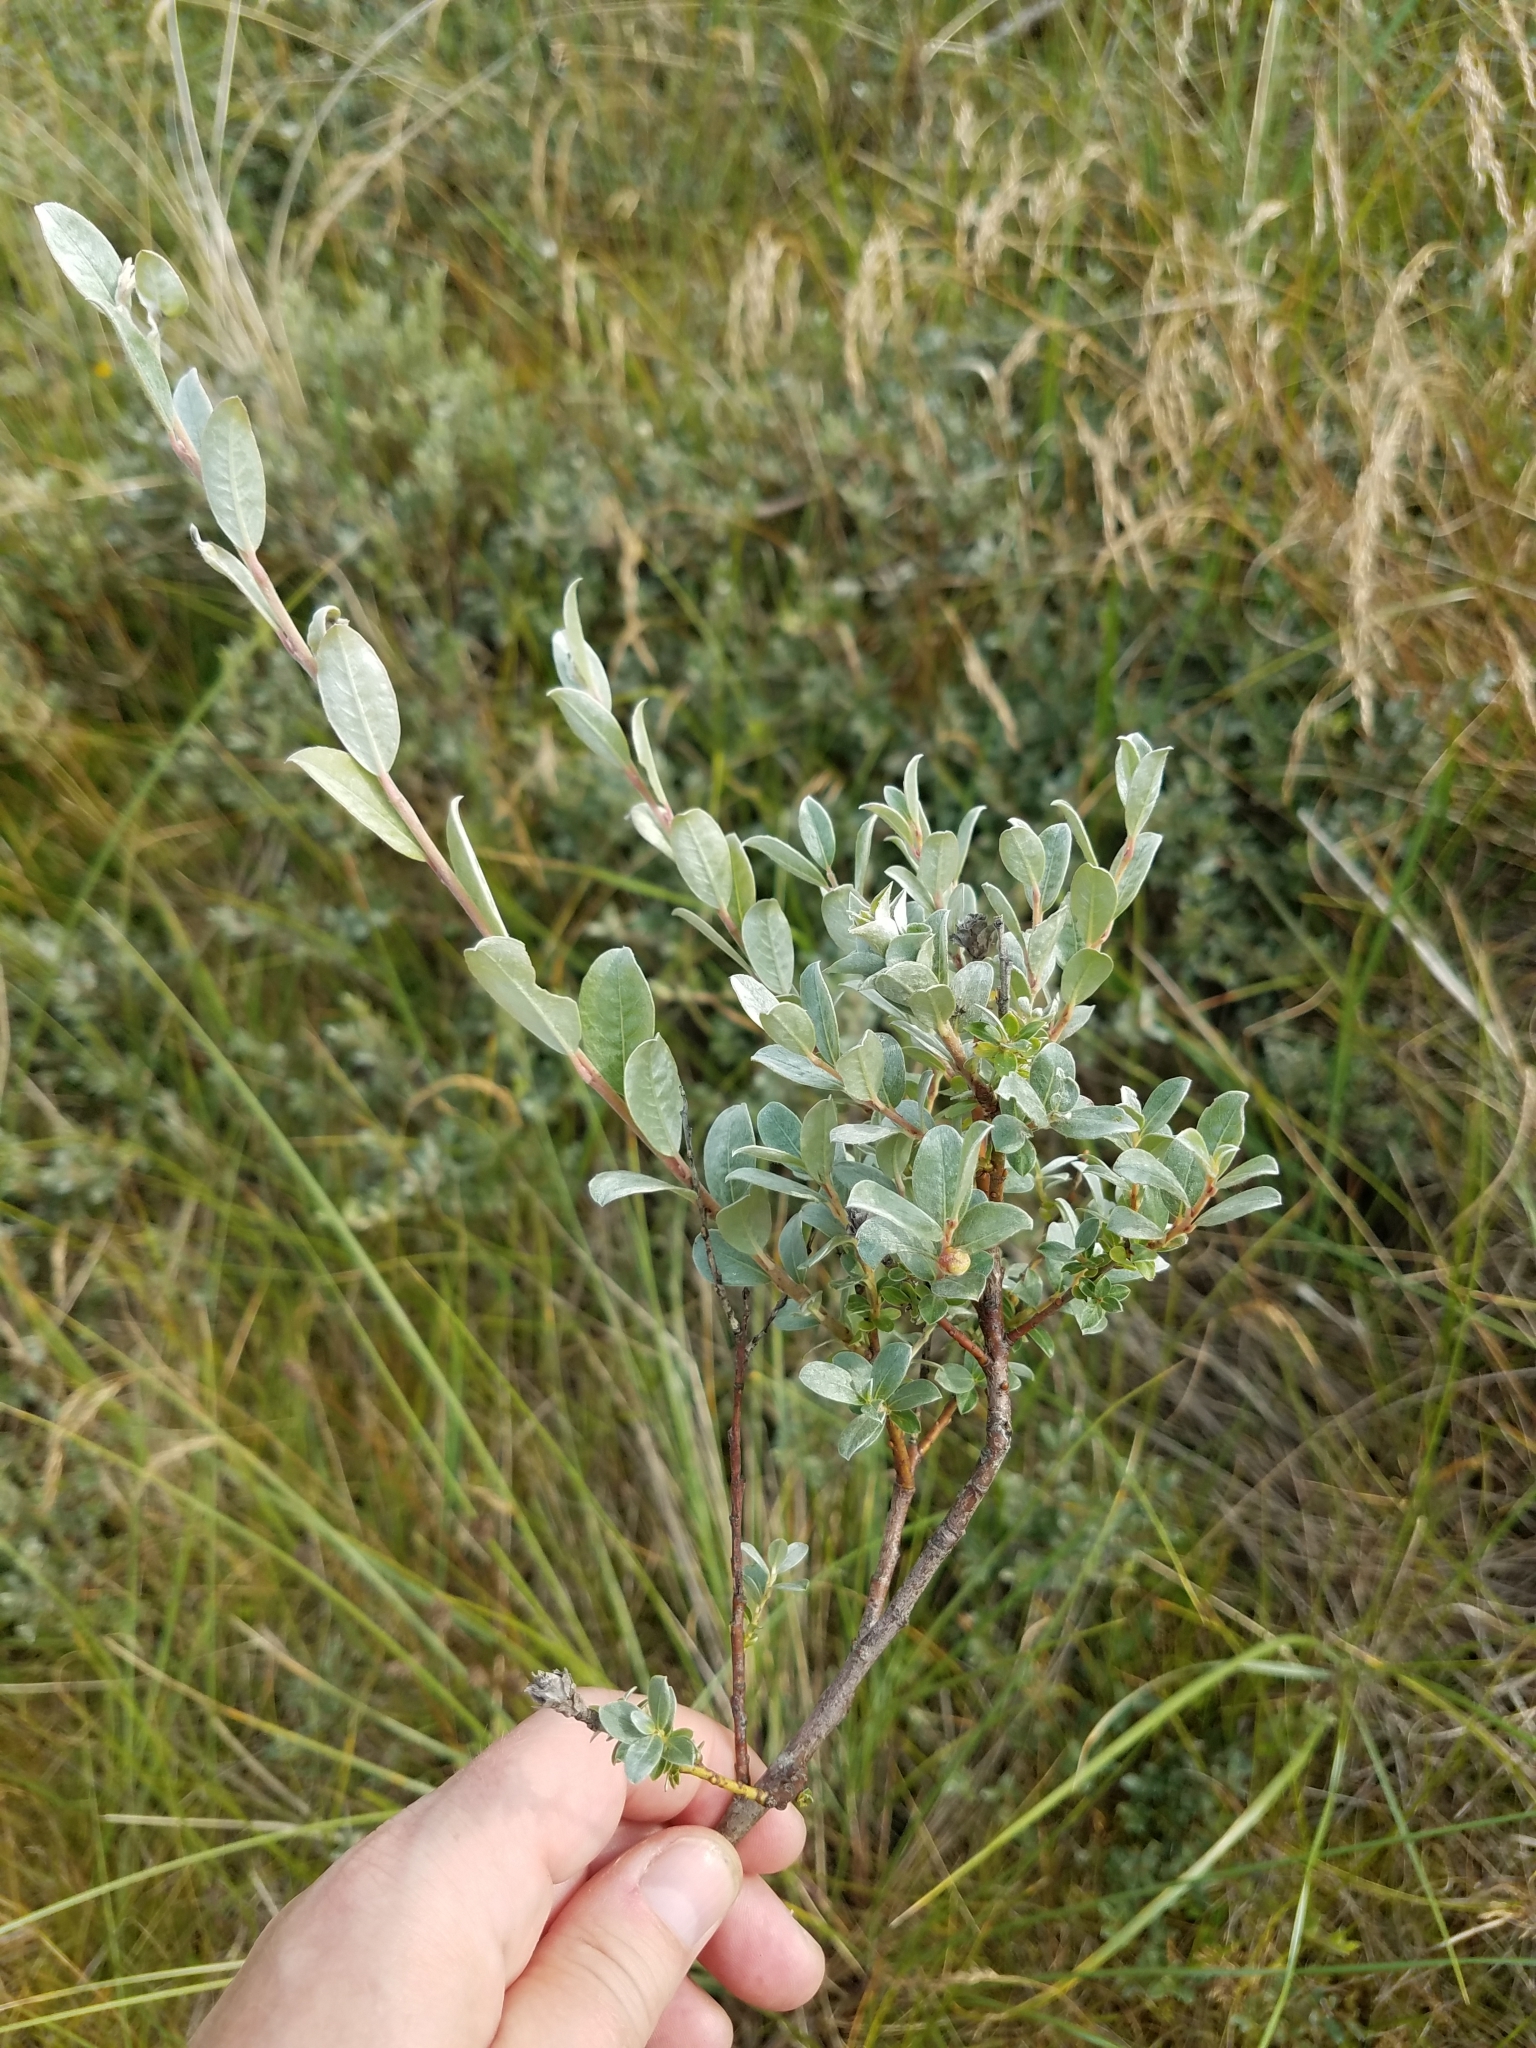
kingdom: Plantae
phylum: Tracheophyta
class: Magnoliopsida
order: Malpighiales
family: Salicaceae
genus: Salix
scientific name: Salix repens
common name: Creeping willow
